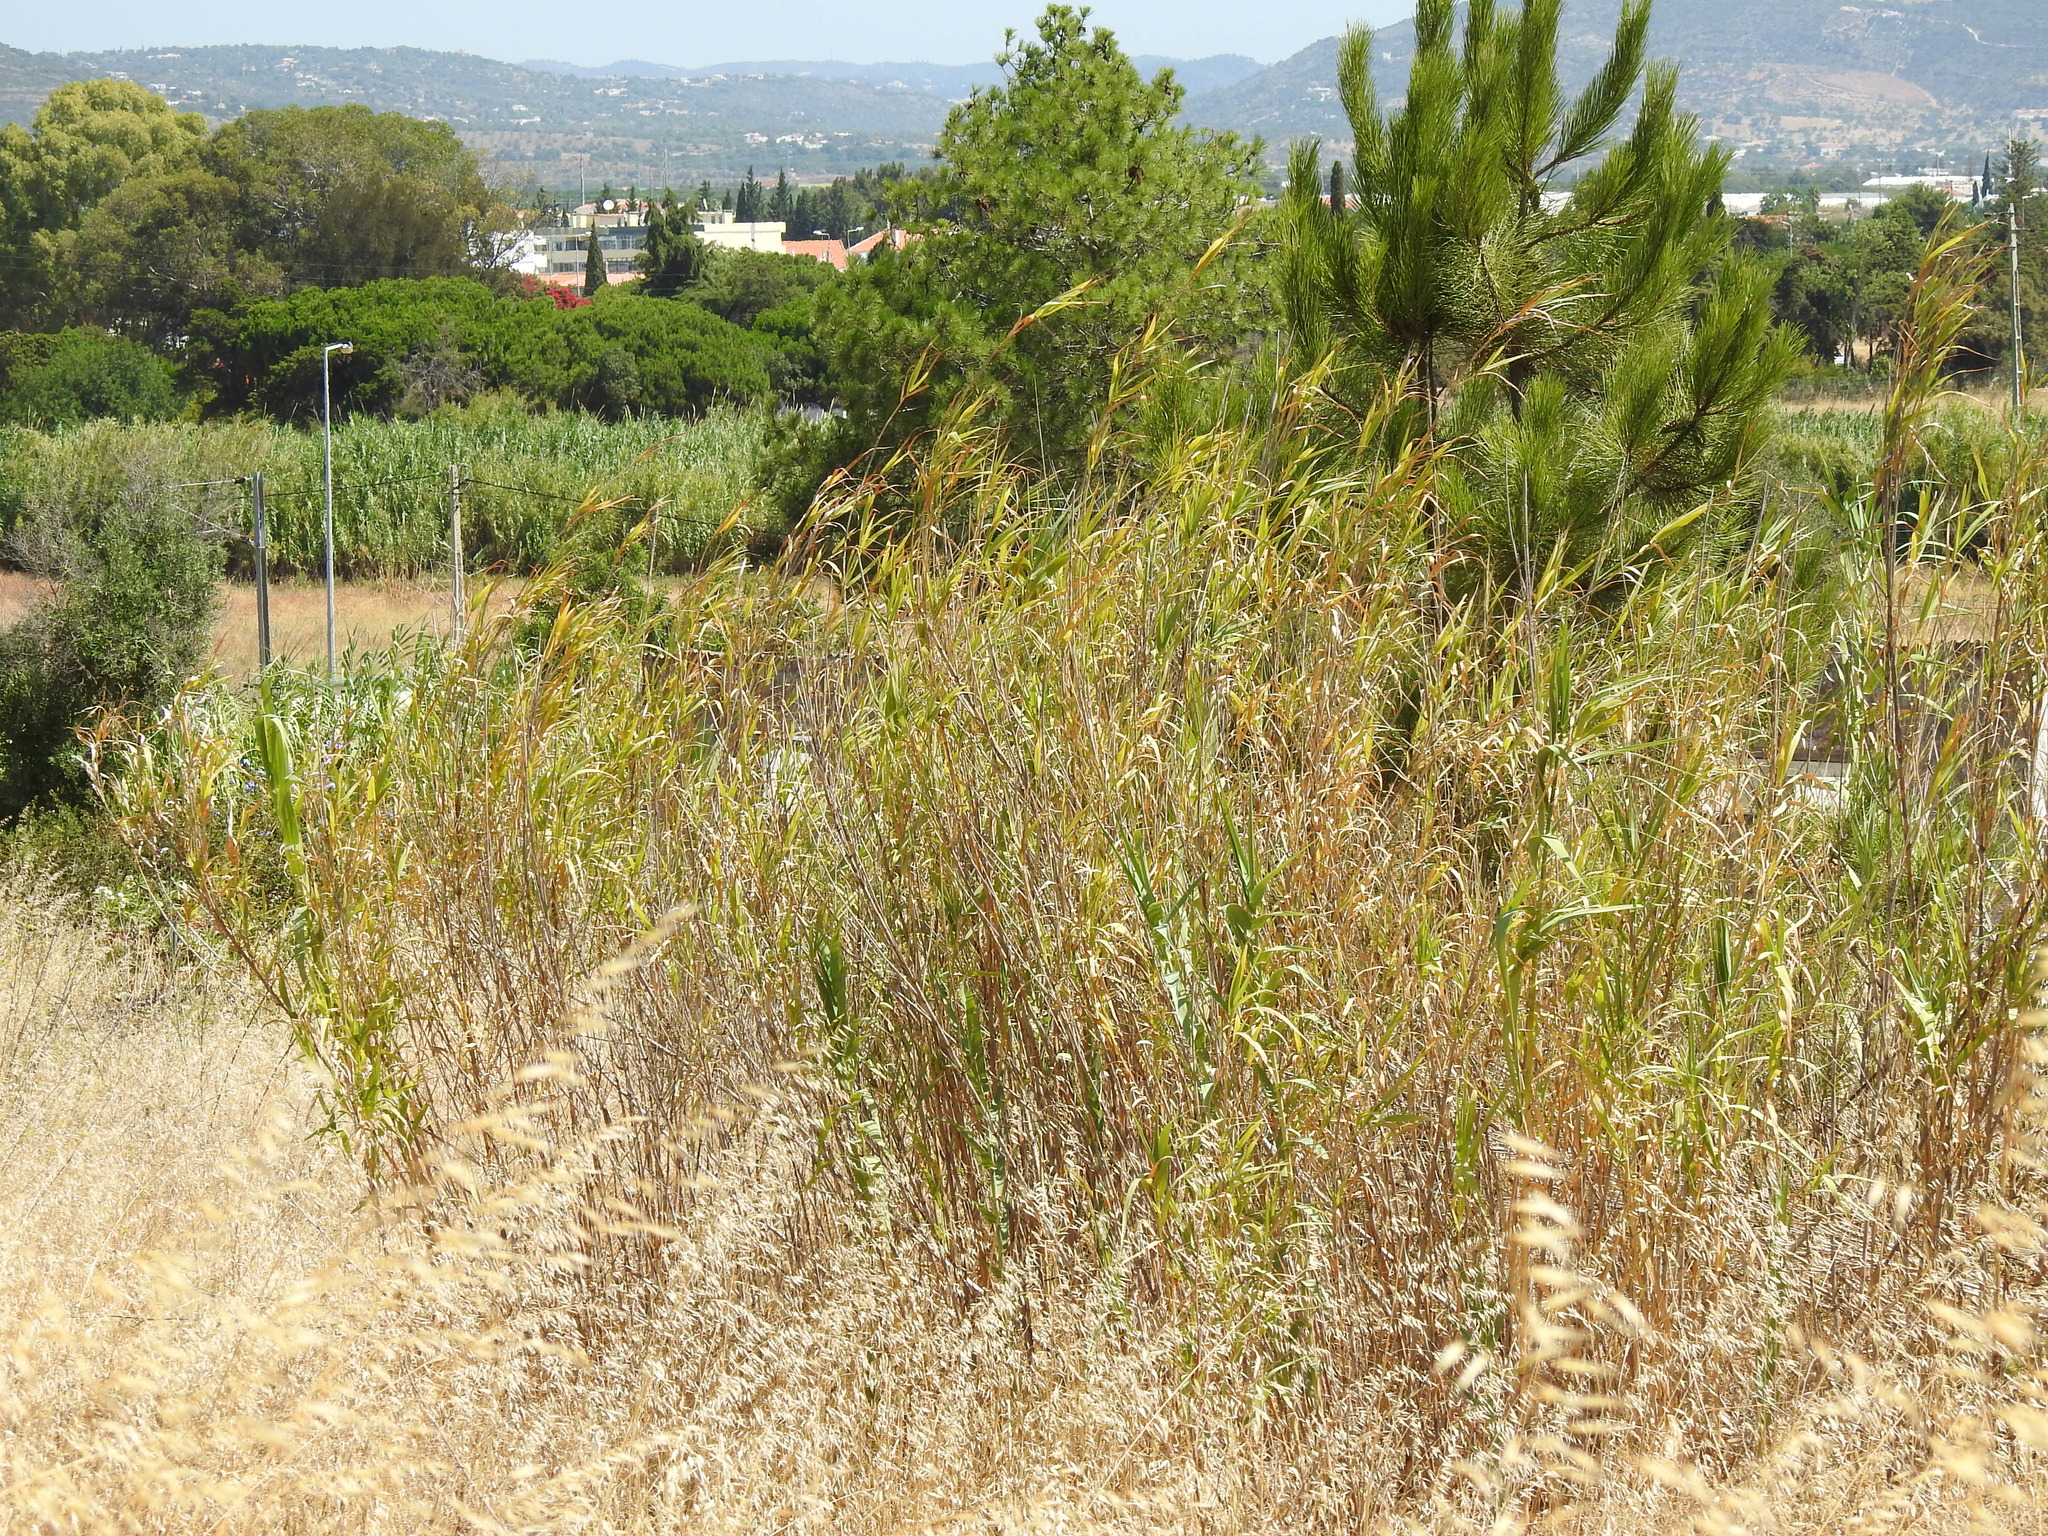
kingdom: Plantae
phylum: Tracheophyta
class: Liliopsida
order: Poales
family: Poaceae
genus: Arundo
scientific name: Arundo donax
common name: Giant reed
